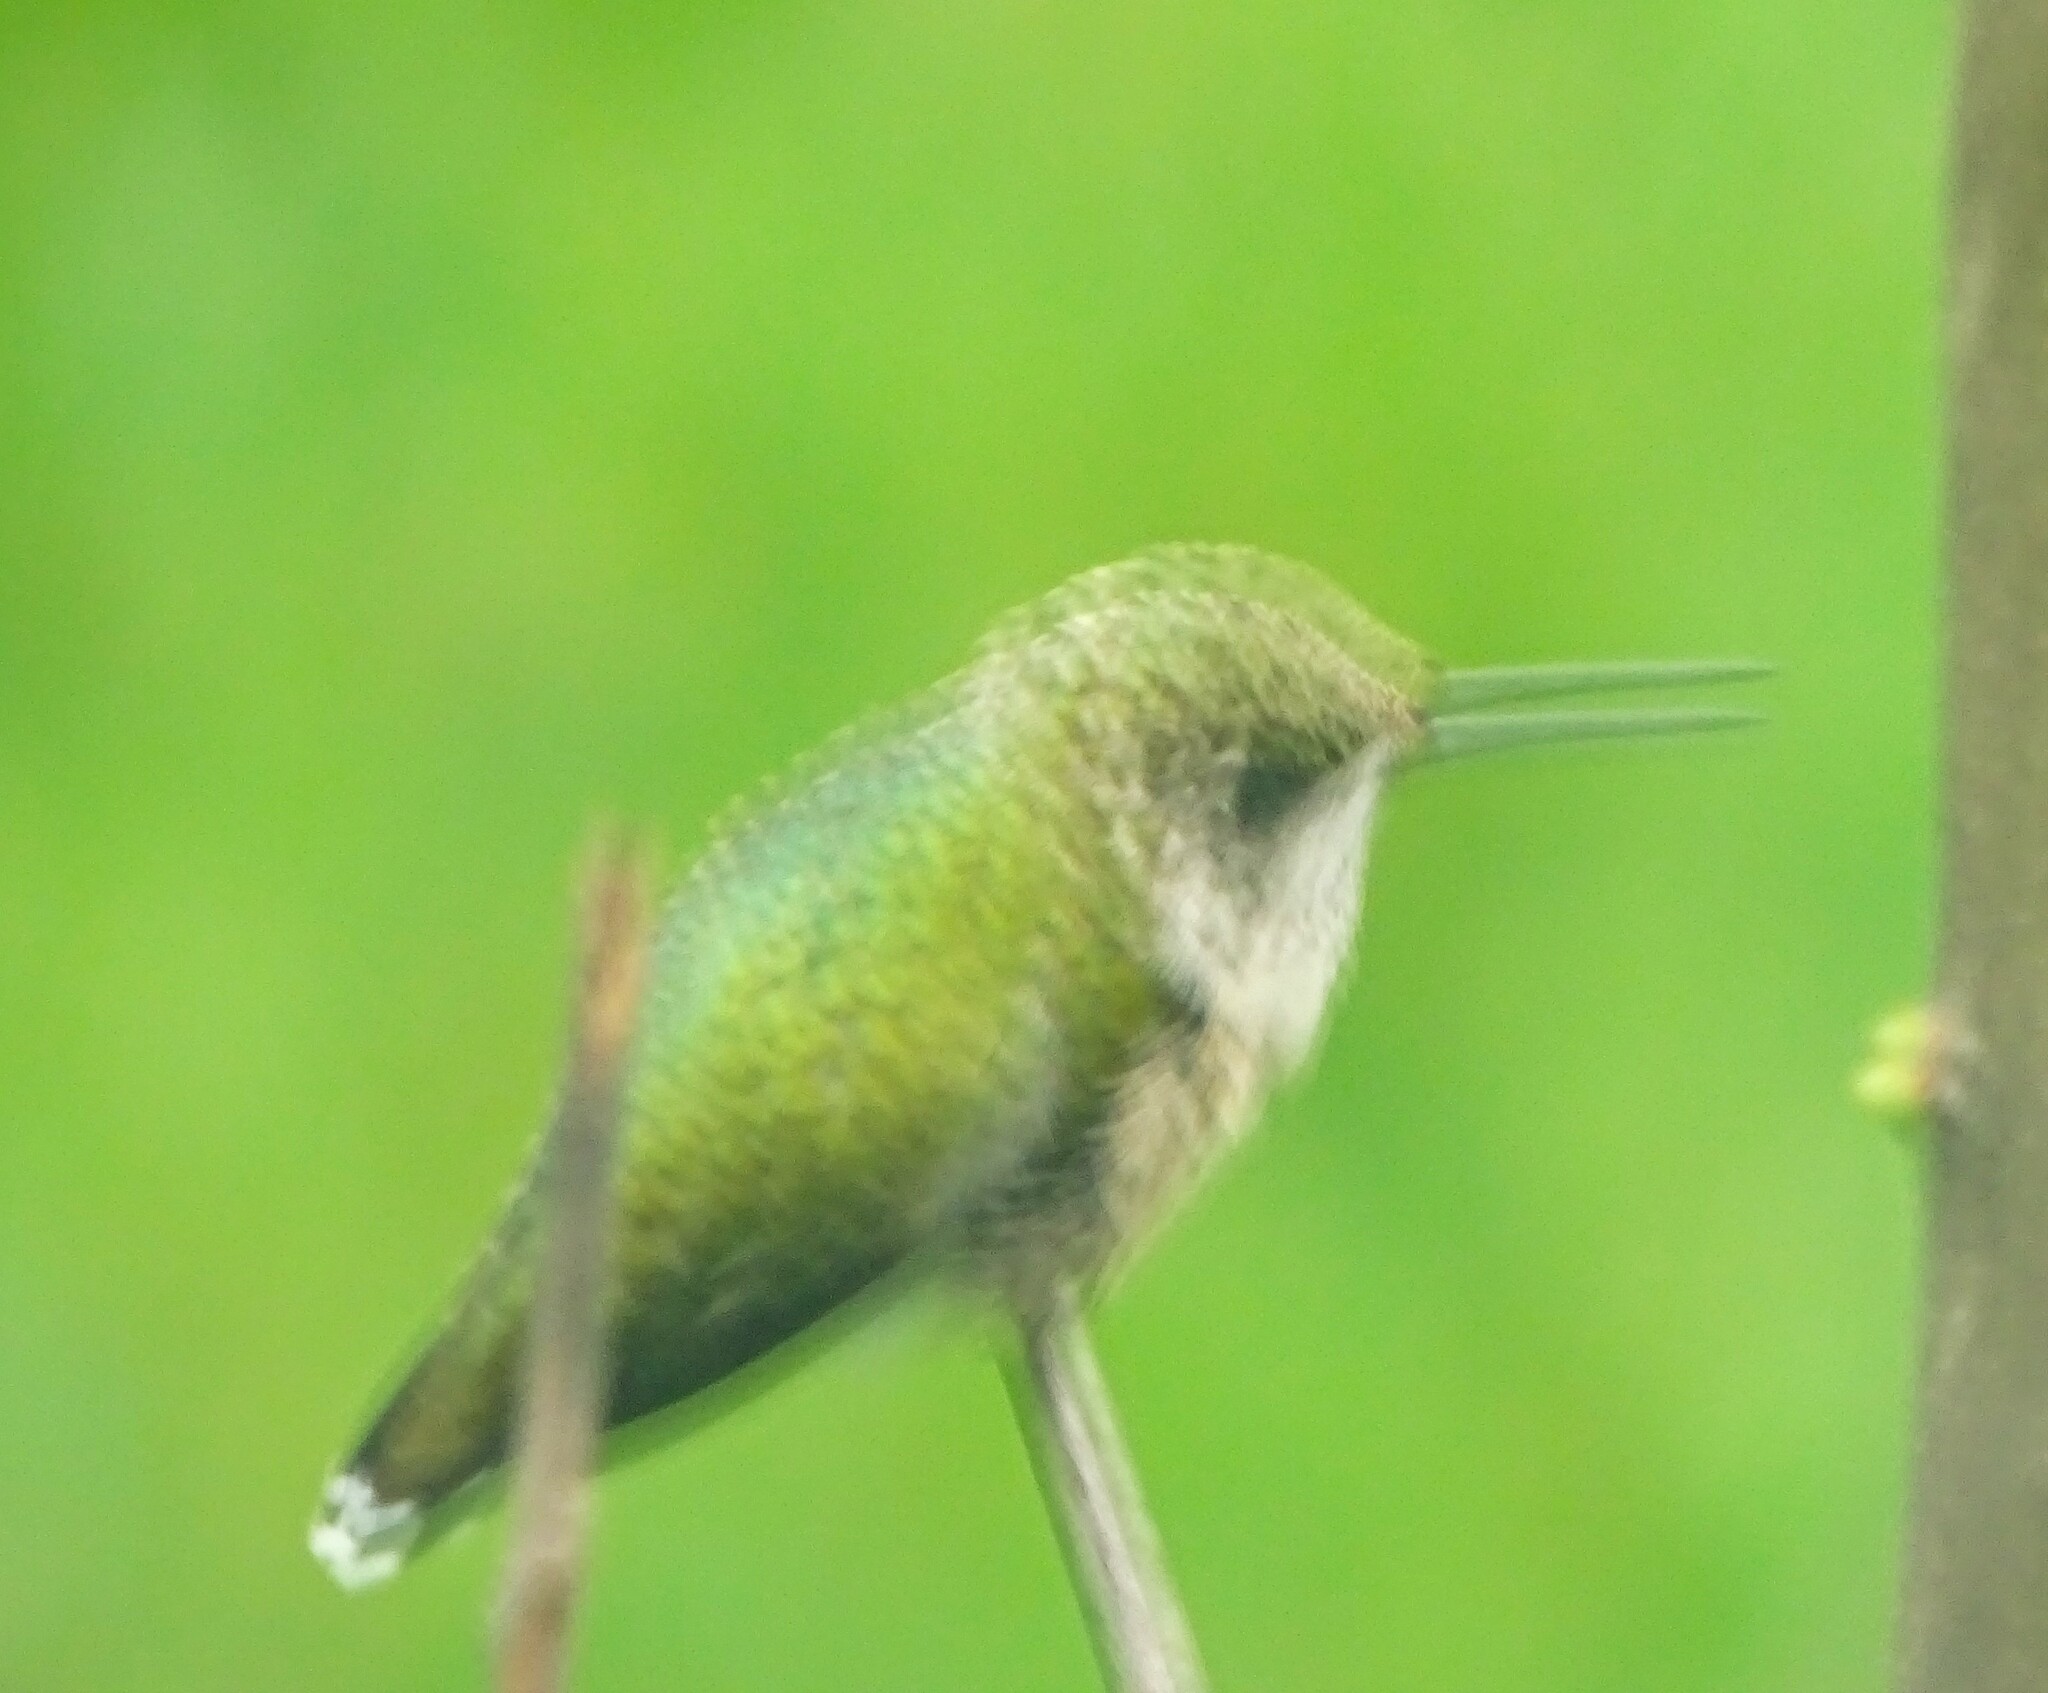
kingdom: Animalia
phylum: Chordata
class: Aves
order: Apodiformes
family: Trochilidae
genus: Archilochus
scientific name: Archilochus colubris
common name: Ruby-throated hummingbird
